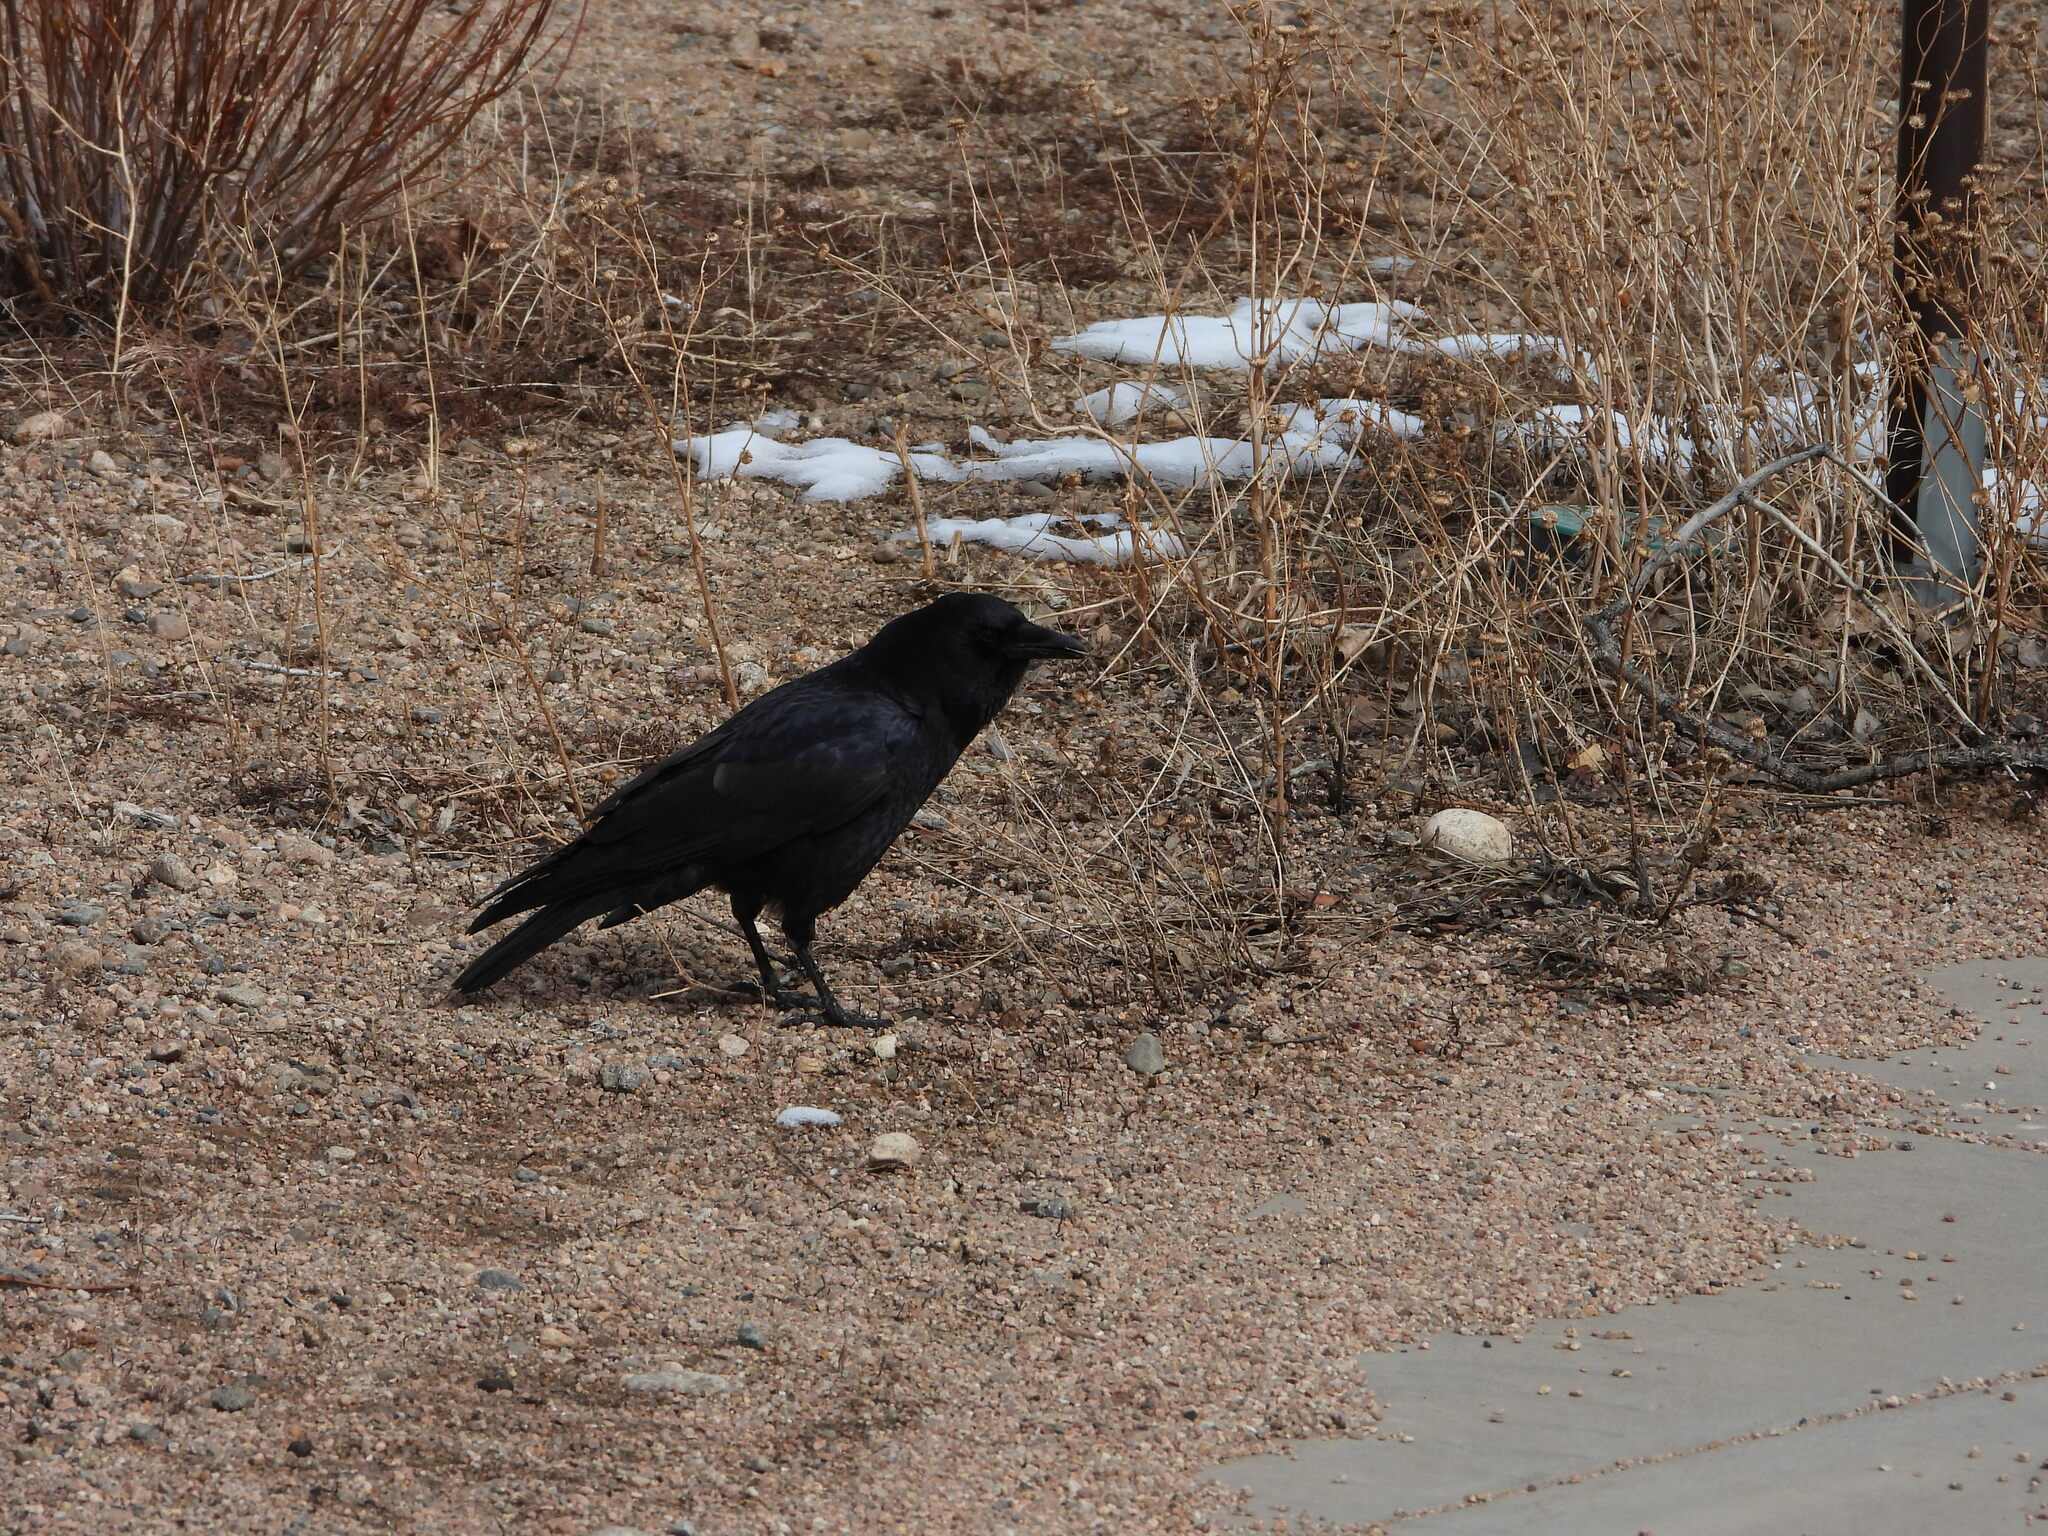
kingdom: Animalia
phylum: Chordata
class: Aves
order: Passeriformes
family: Corvidae
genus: Corvus
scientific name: Corvus brachyrhynchos
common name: American crow
